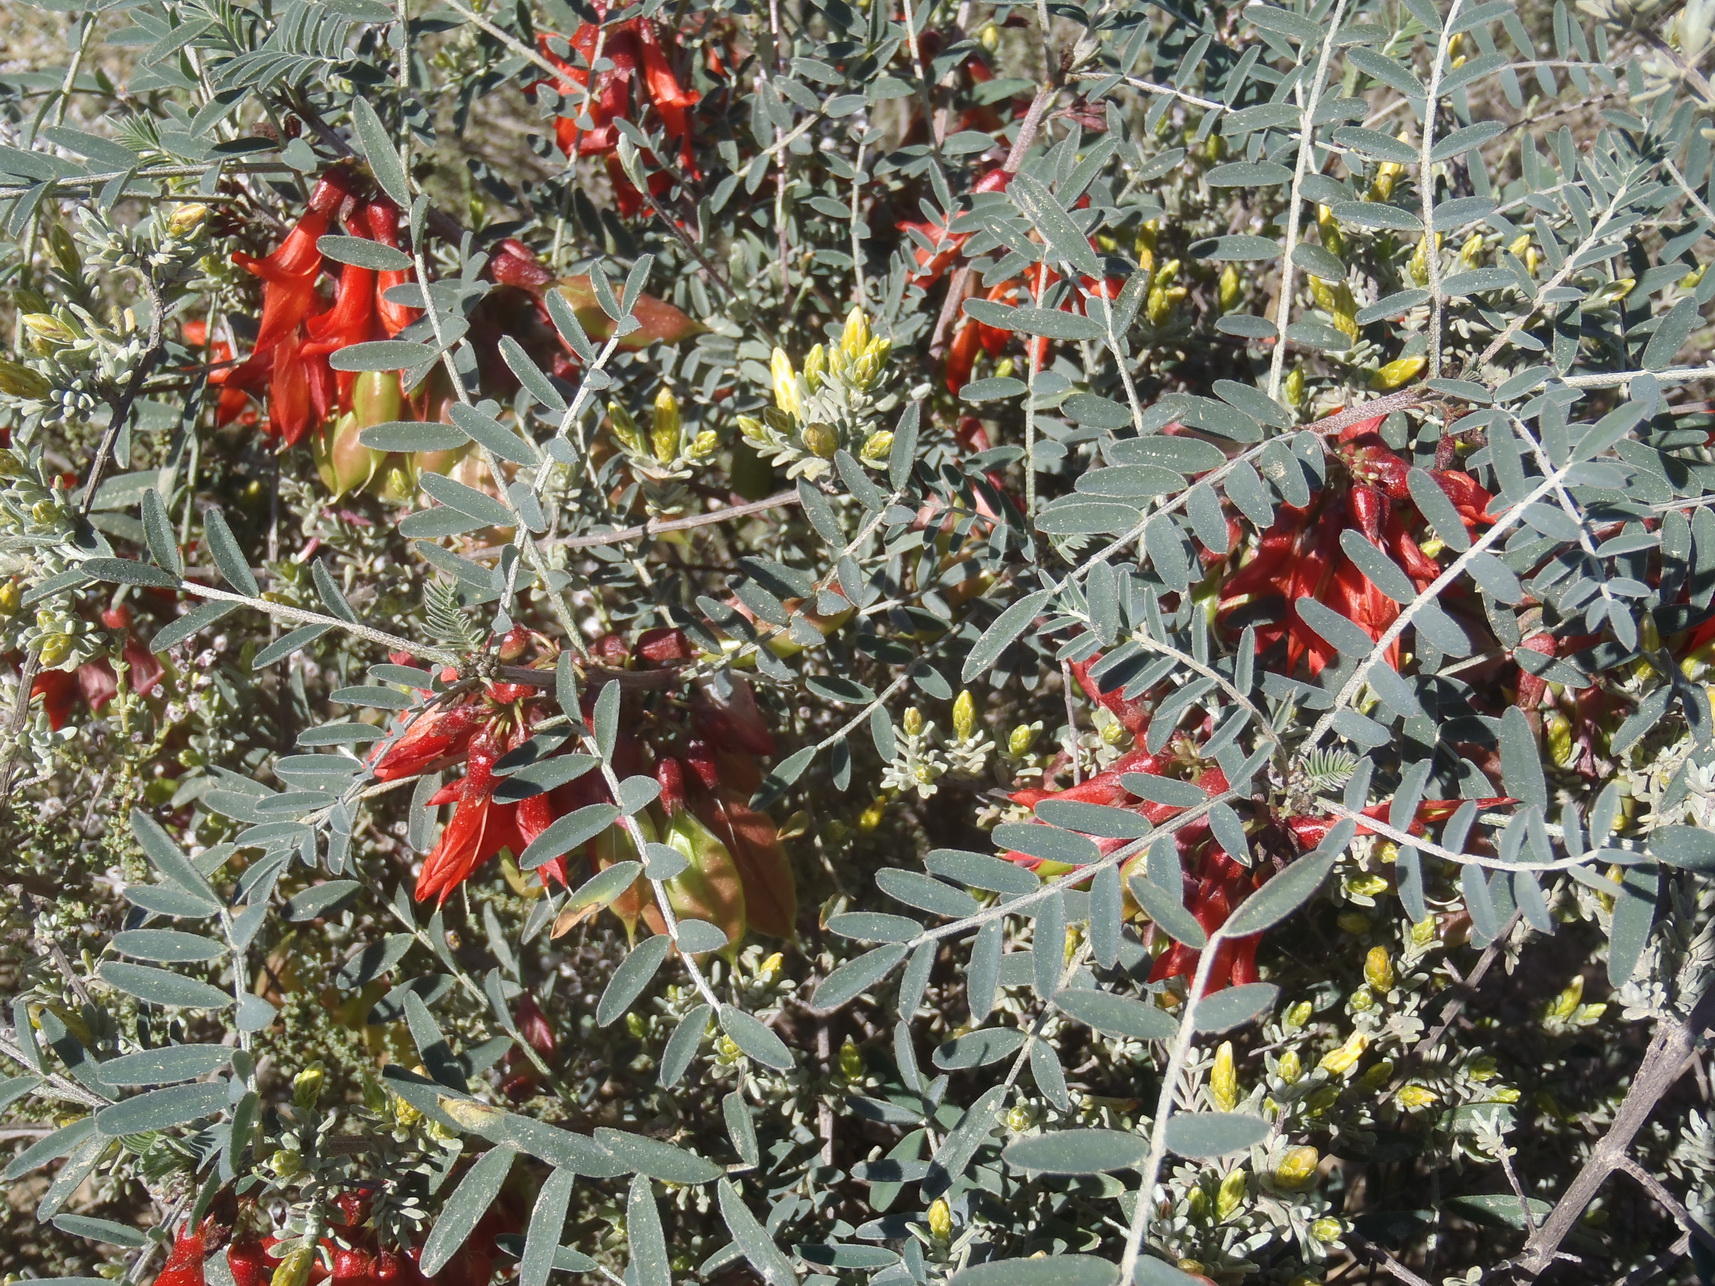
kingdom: Plantae
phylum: Tracheophyta
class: Magnoliopsida
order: Fabales
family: Fabaceae
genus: Lessertia
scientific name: Lessertia frutescens
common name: Balloon-pea
